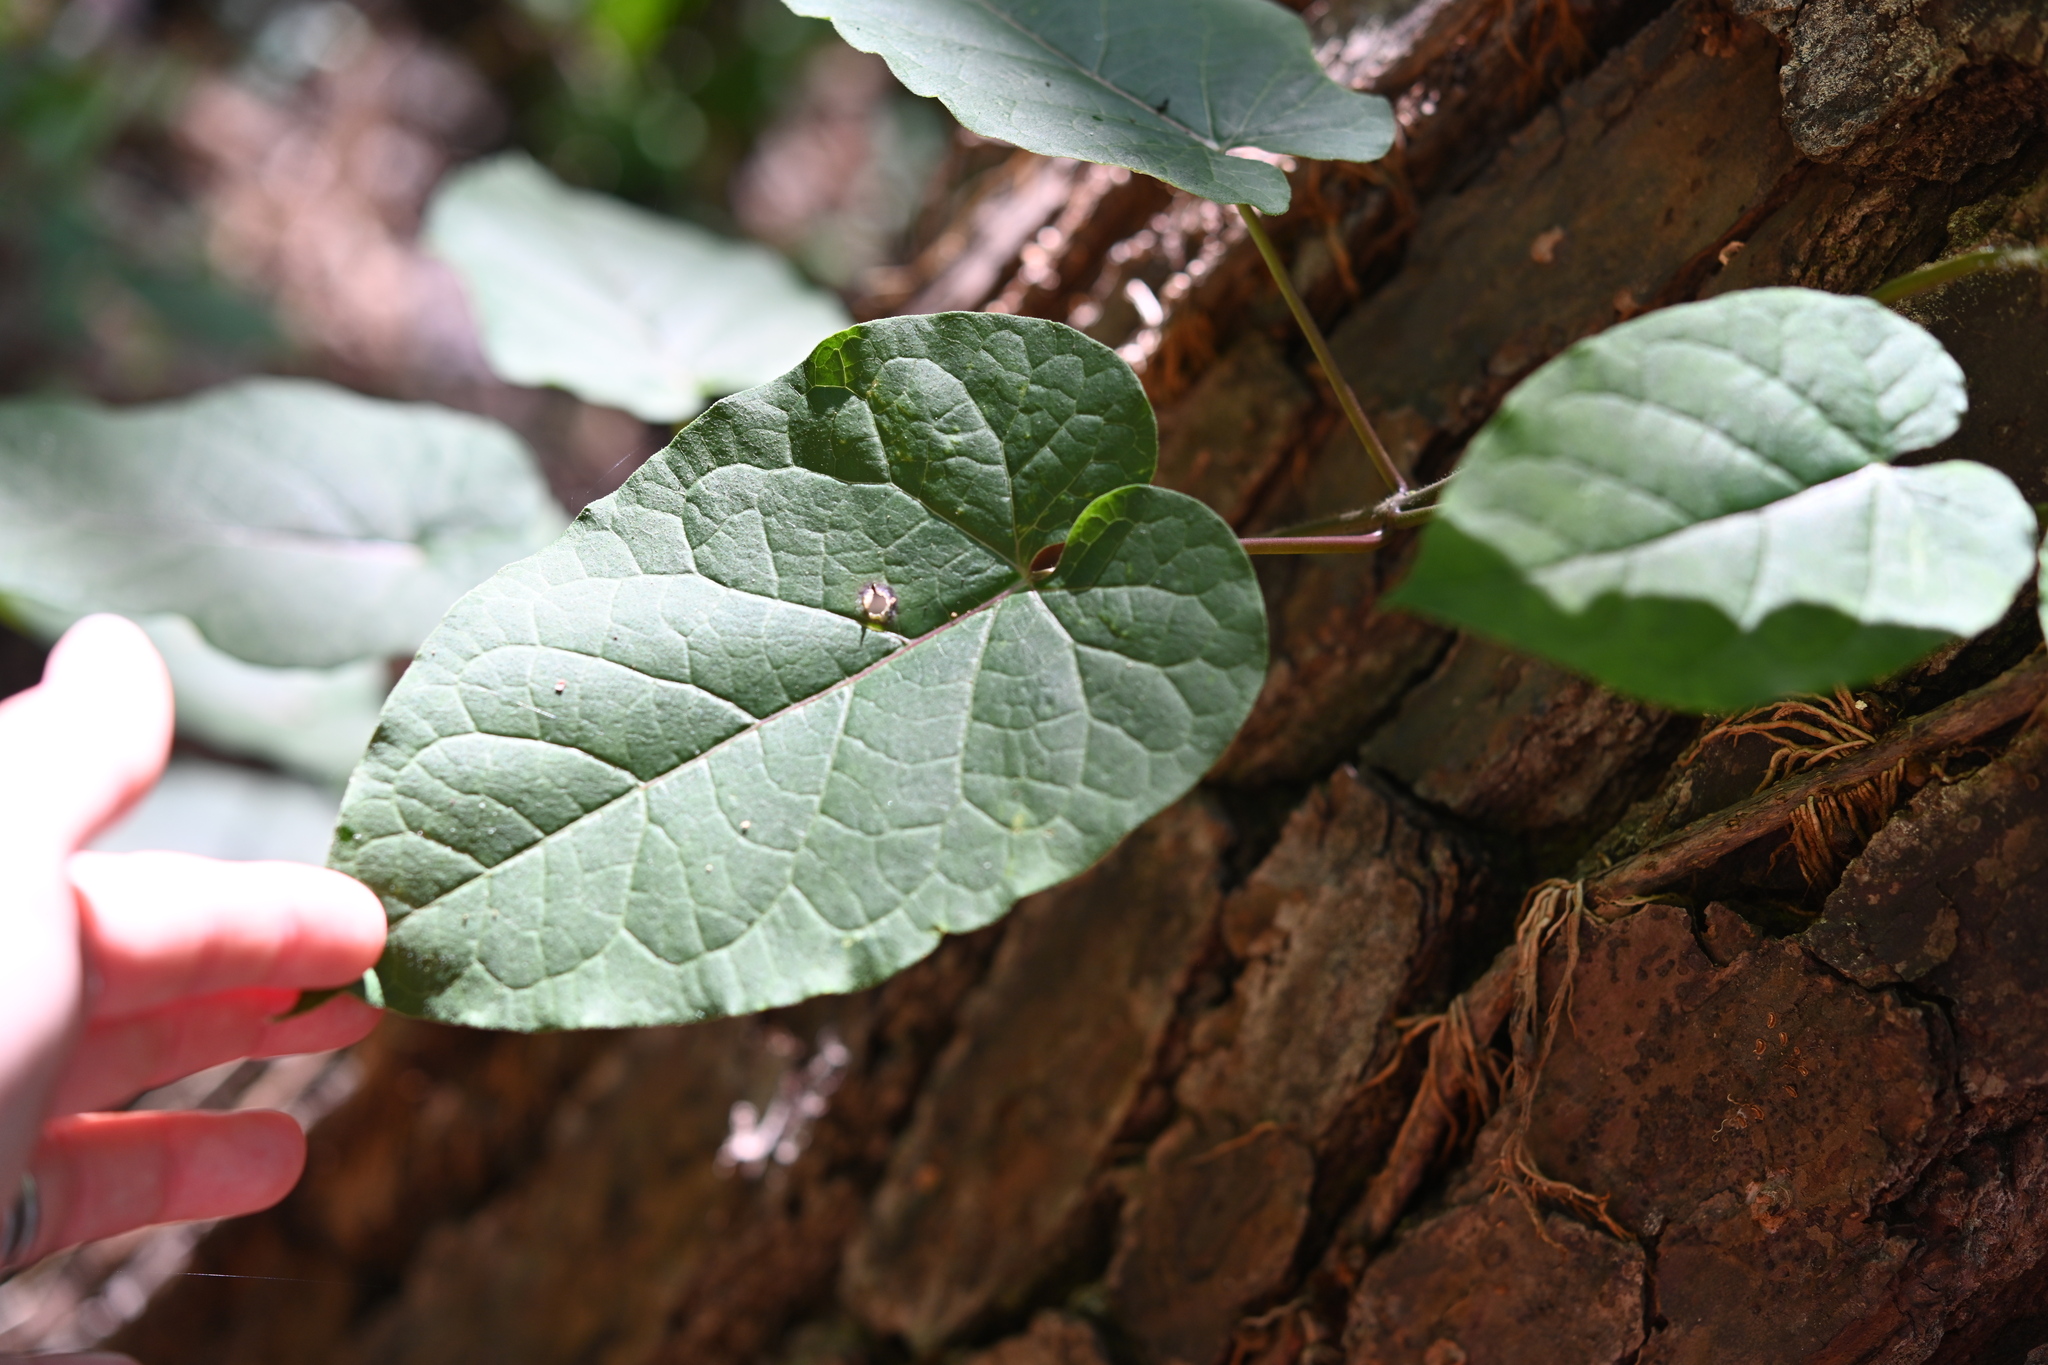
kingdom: Plantae
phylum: Tracheophyta
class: Magnoliopsida
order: Gentianales
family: Apocynaceae
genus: Gonolobus
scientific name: Gonolobus suberosus
